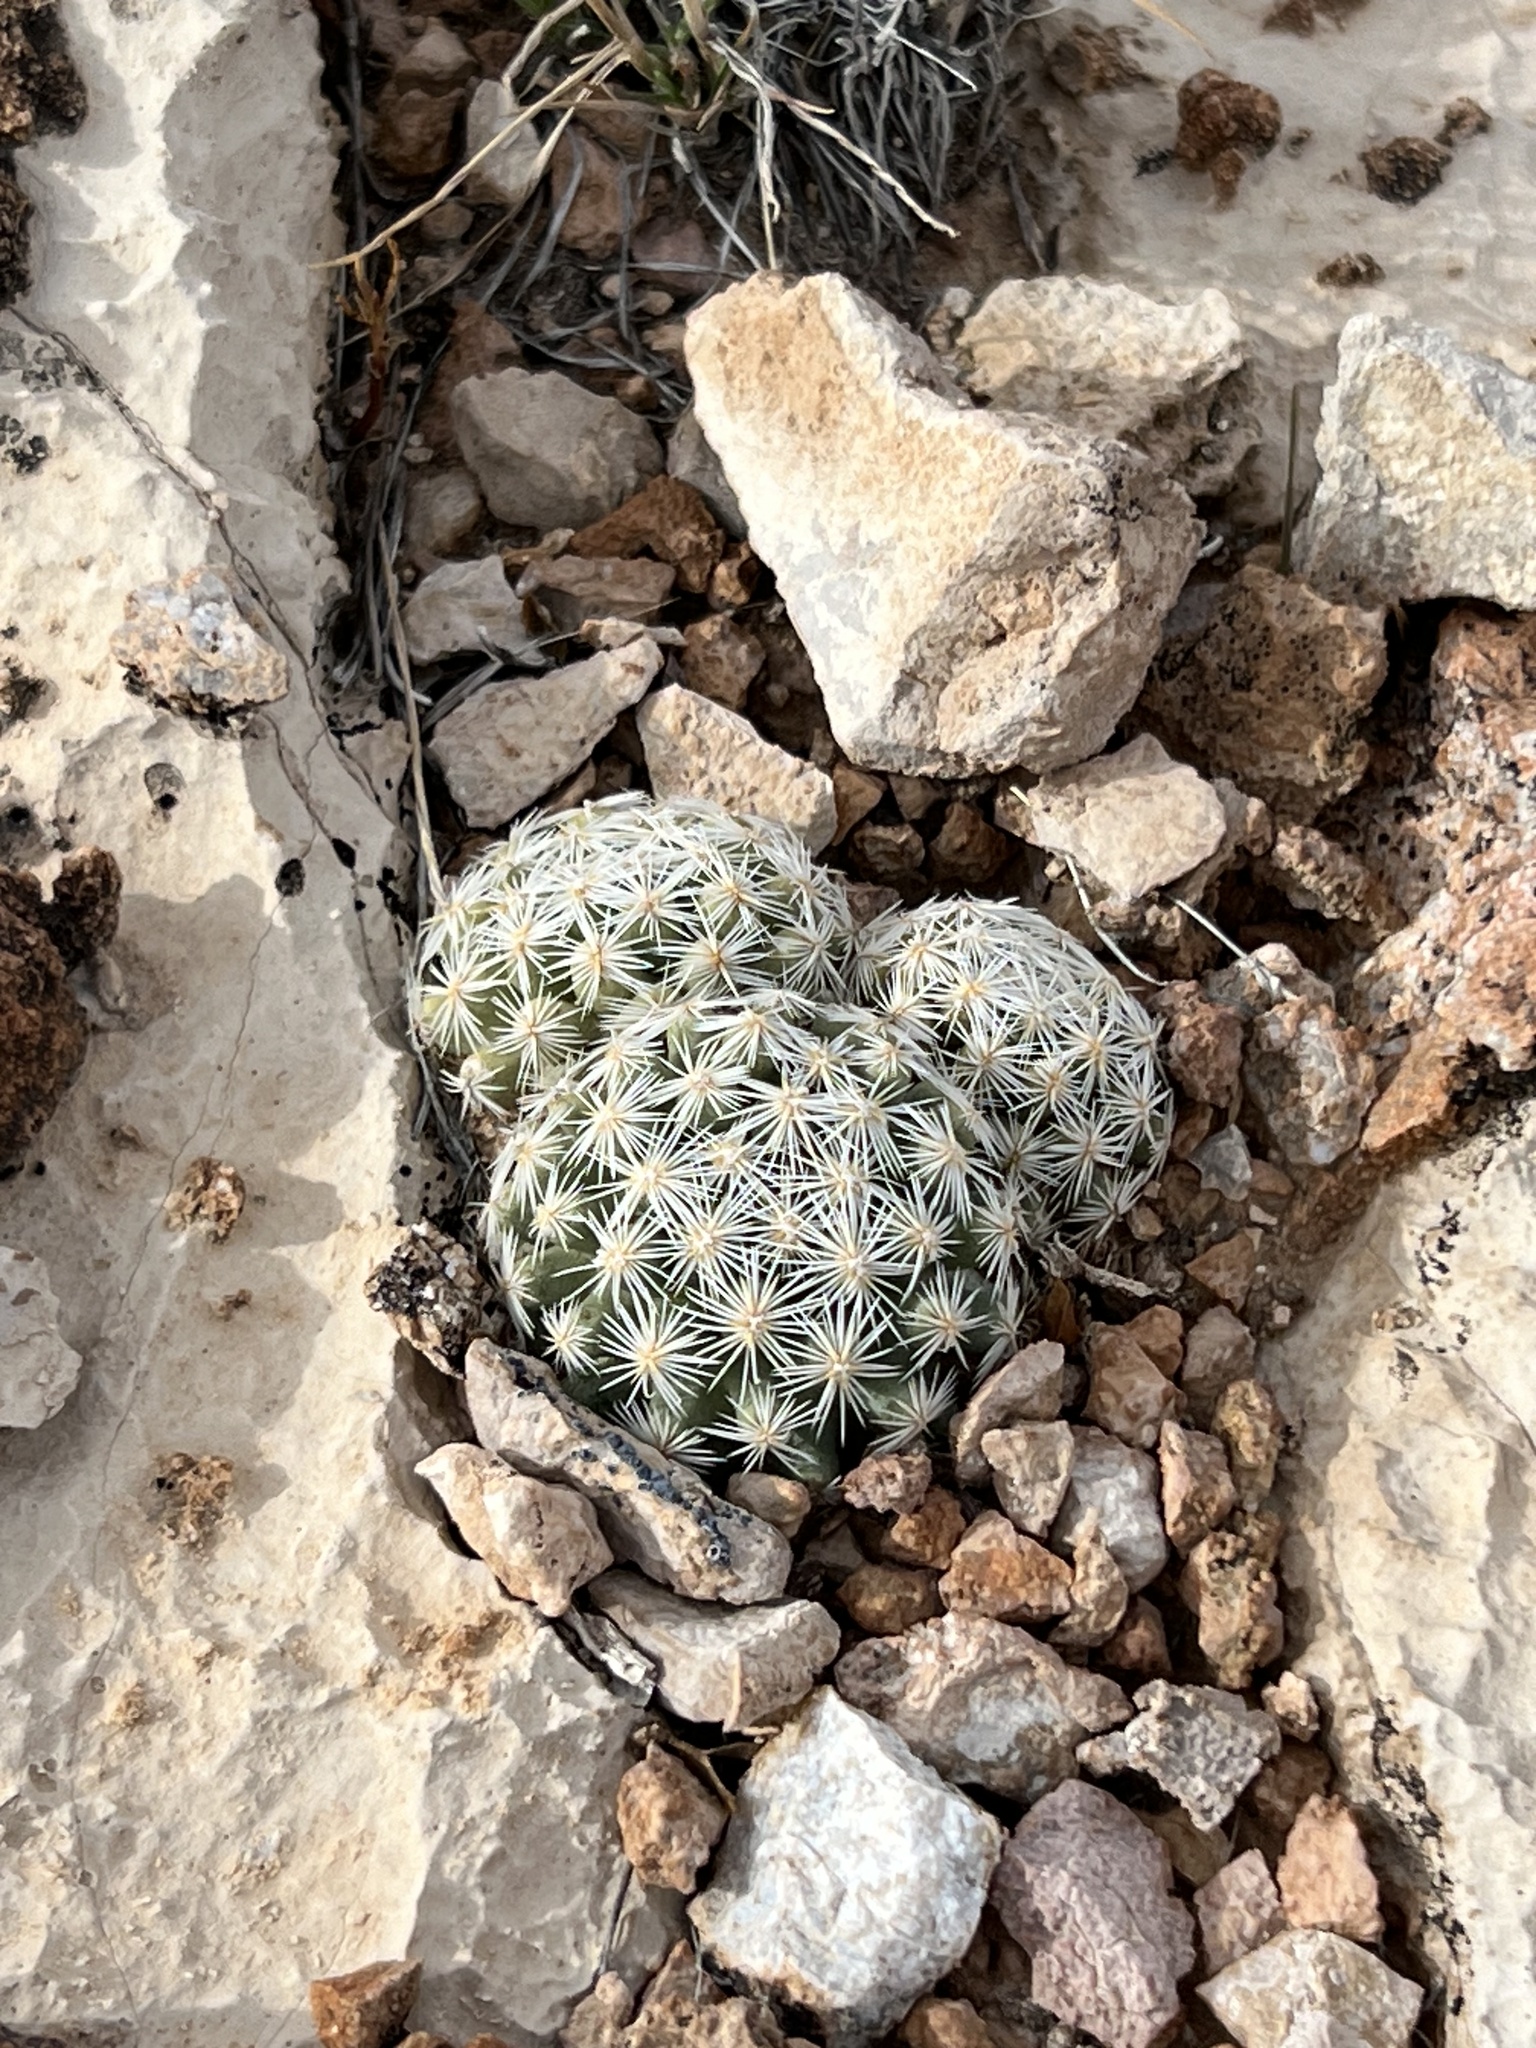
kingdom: Plantae
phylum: Tracheophyta
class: Magnoliopsida
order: Caryophyllales
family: Cactaceae
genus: Pelecyphora
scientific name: Pelecyphora dasyacantha
